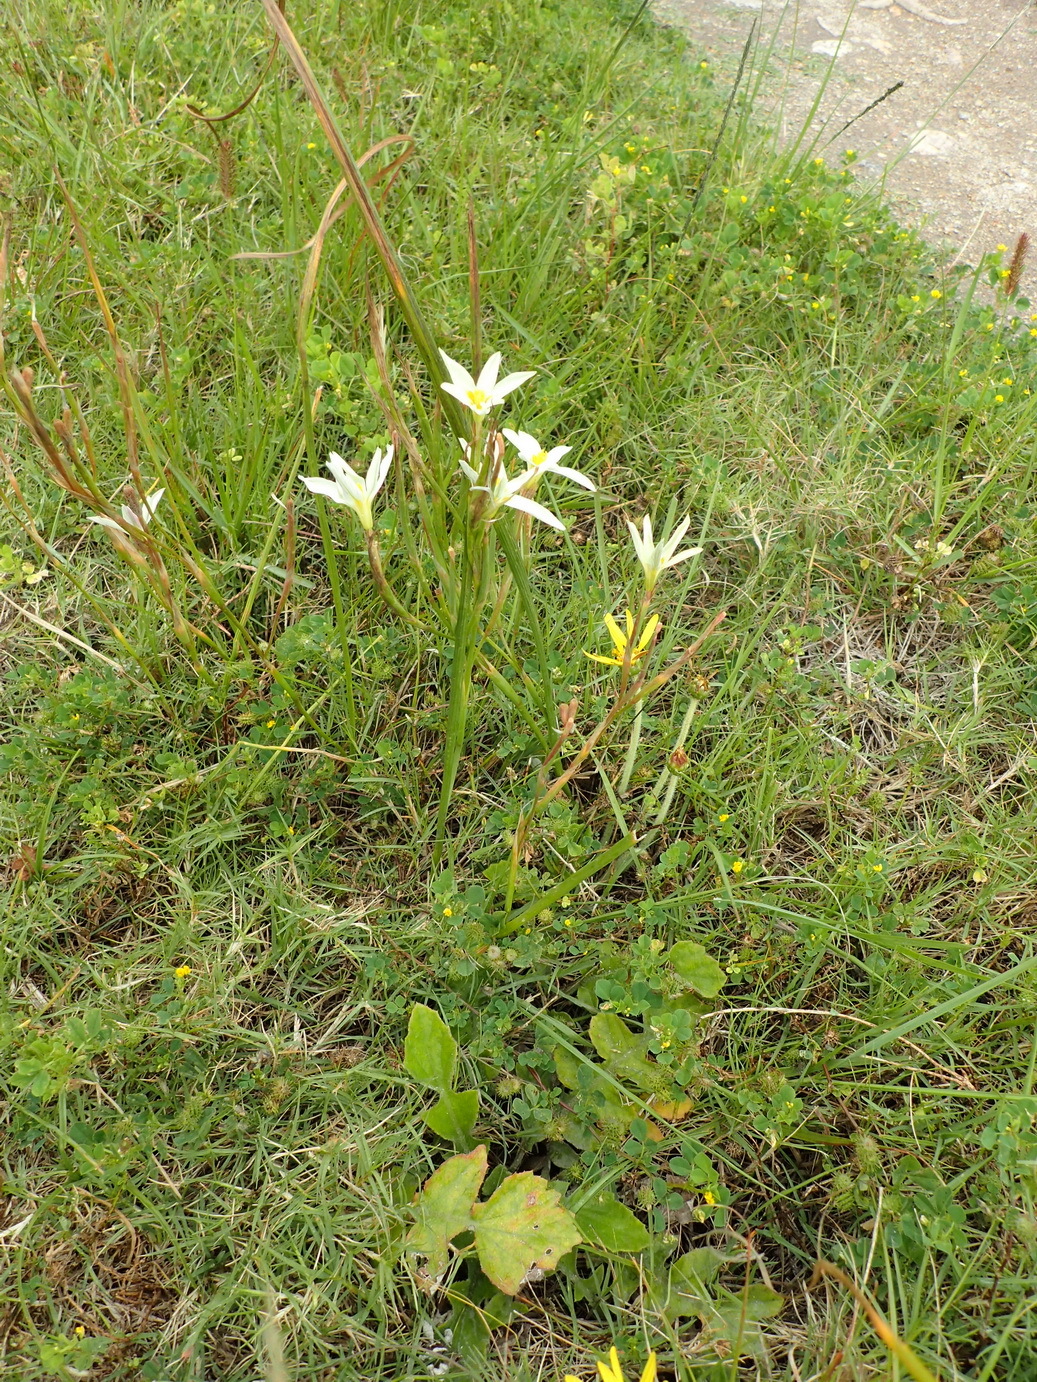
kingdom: Plantae
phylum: Tracheophyta
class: Liliopsida
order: Asparagales
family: Iridaceae
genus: Moraea
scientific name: Moraea bulbillifera
